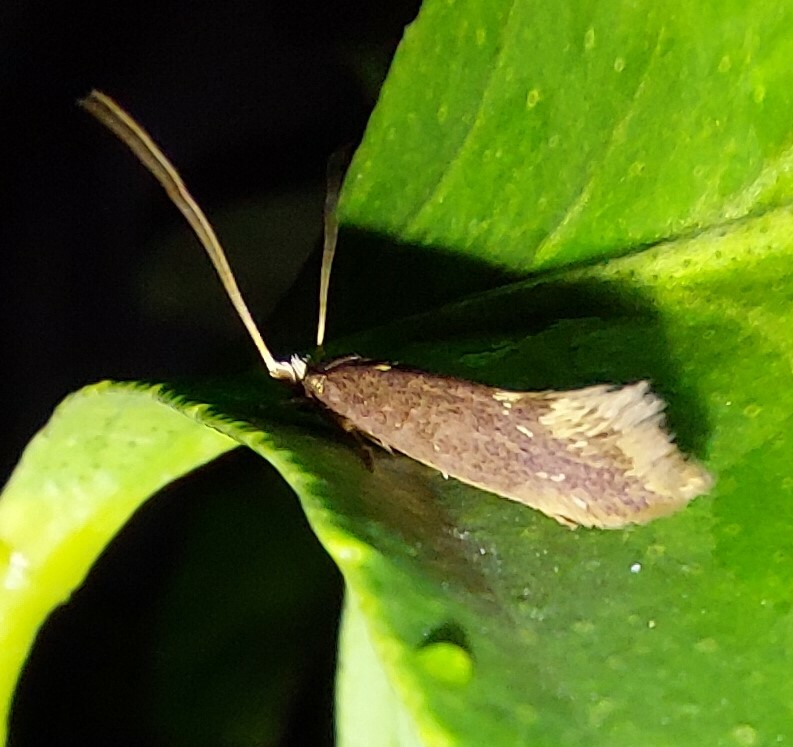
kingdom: Animalia
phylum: Arthropoda
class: Insecta
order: Lepidoptera
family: Tineidae
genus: Opogona
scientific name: Opogona omoscopa
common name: Moth
